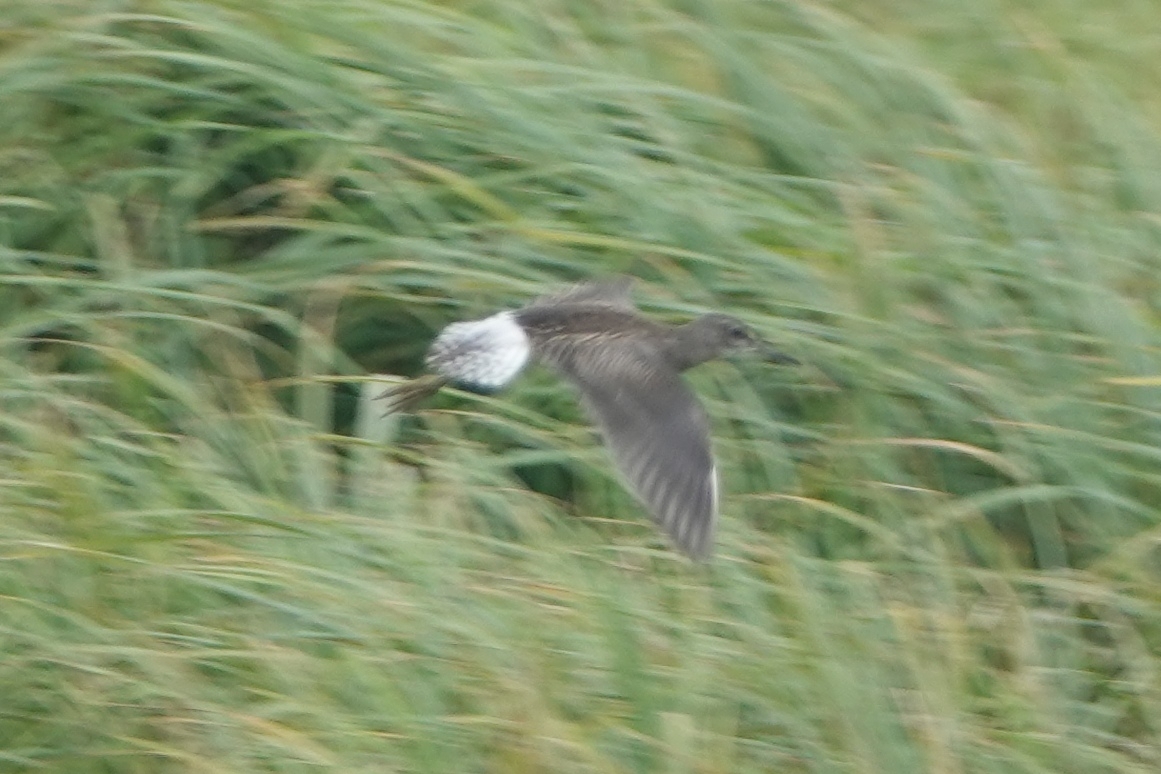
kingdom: Animalia
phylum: Chordata
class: Aves
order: Charadriiformes
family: Scolopacidae
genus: Tringa
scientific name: Tringa glareola
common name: Wood sandpiper
